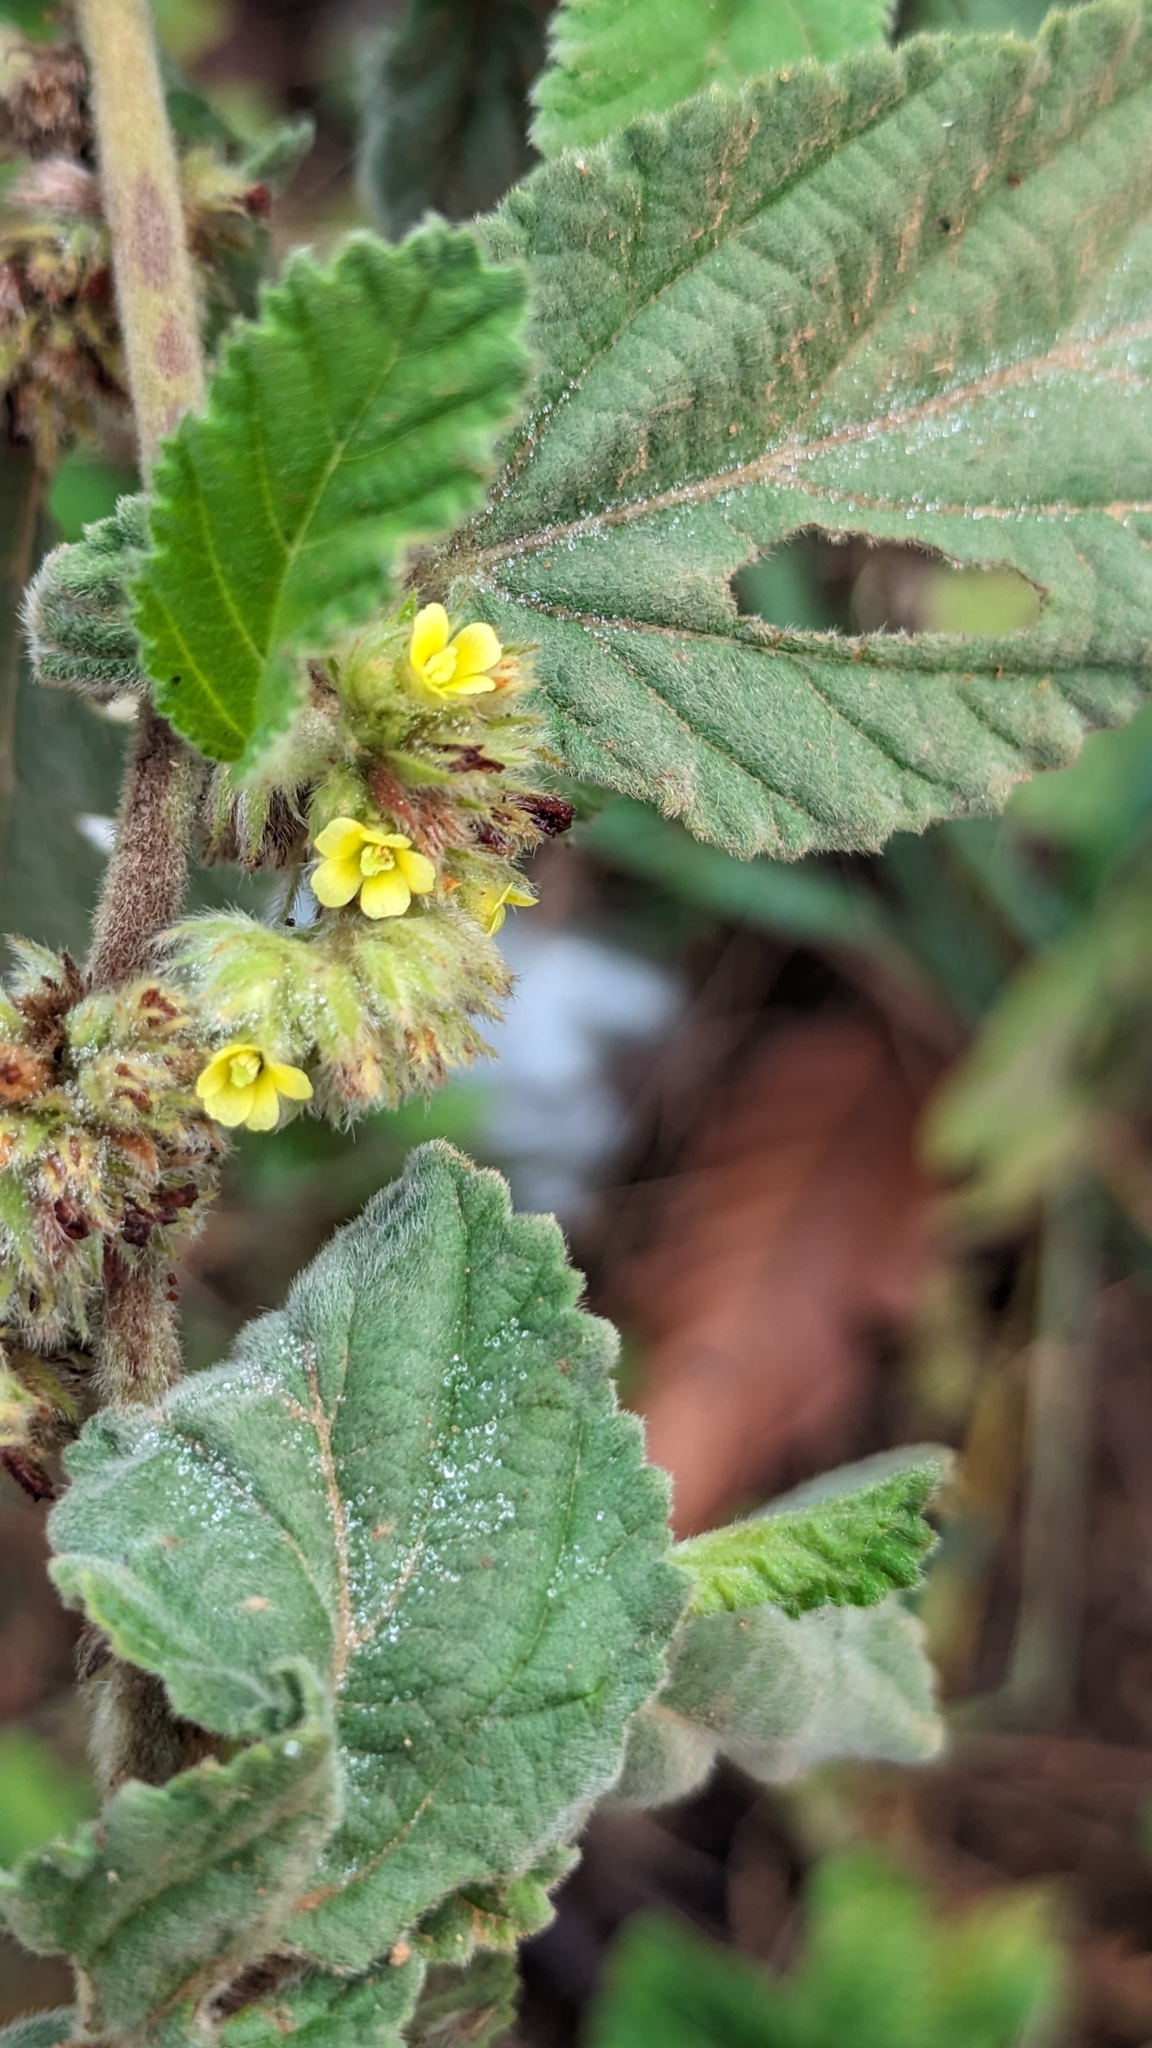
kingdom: Plantae
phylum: Tracheophyta
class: Magnoliopsida
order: Malvales
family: Malvaceae
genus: Waltheria
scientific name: Waltheria indica
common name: Leather-coat
